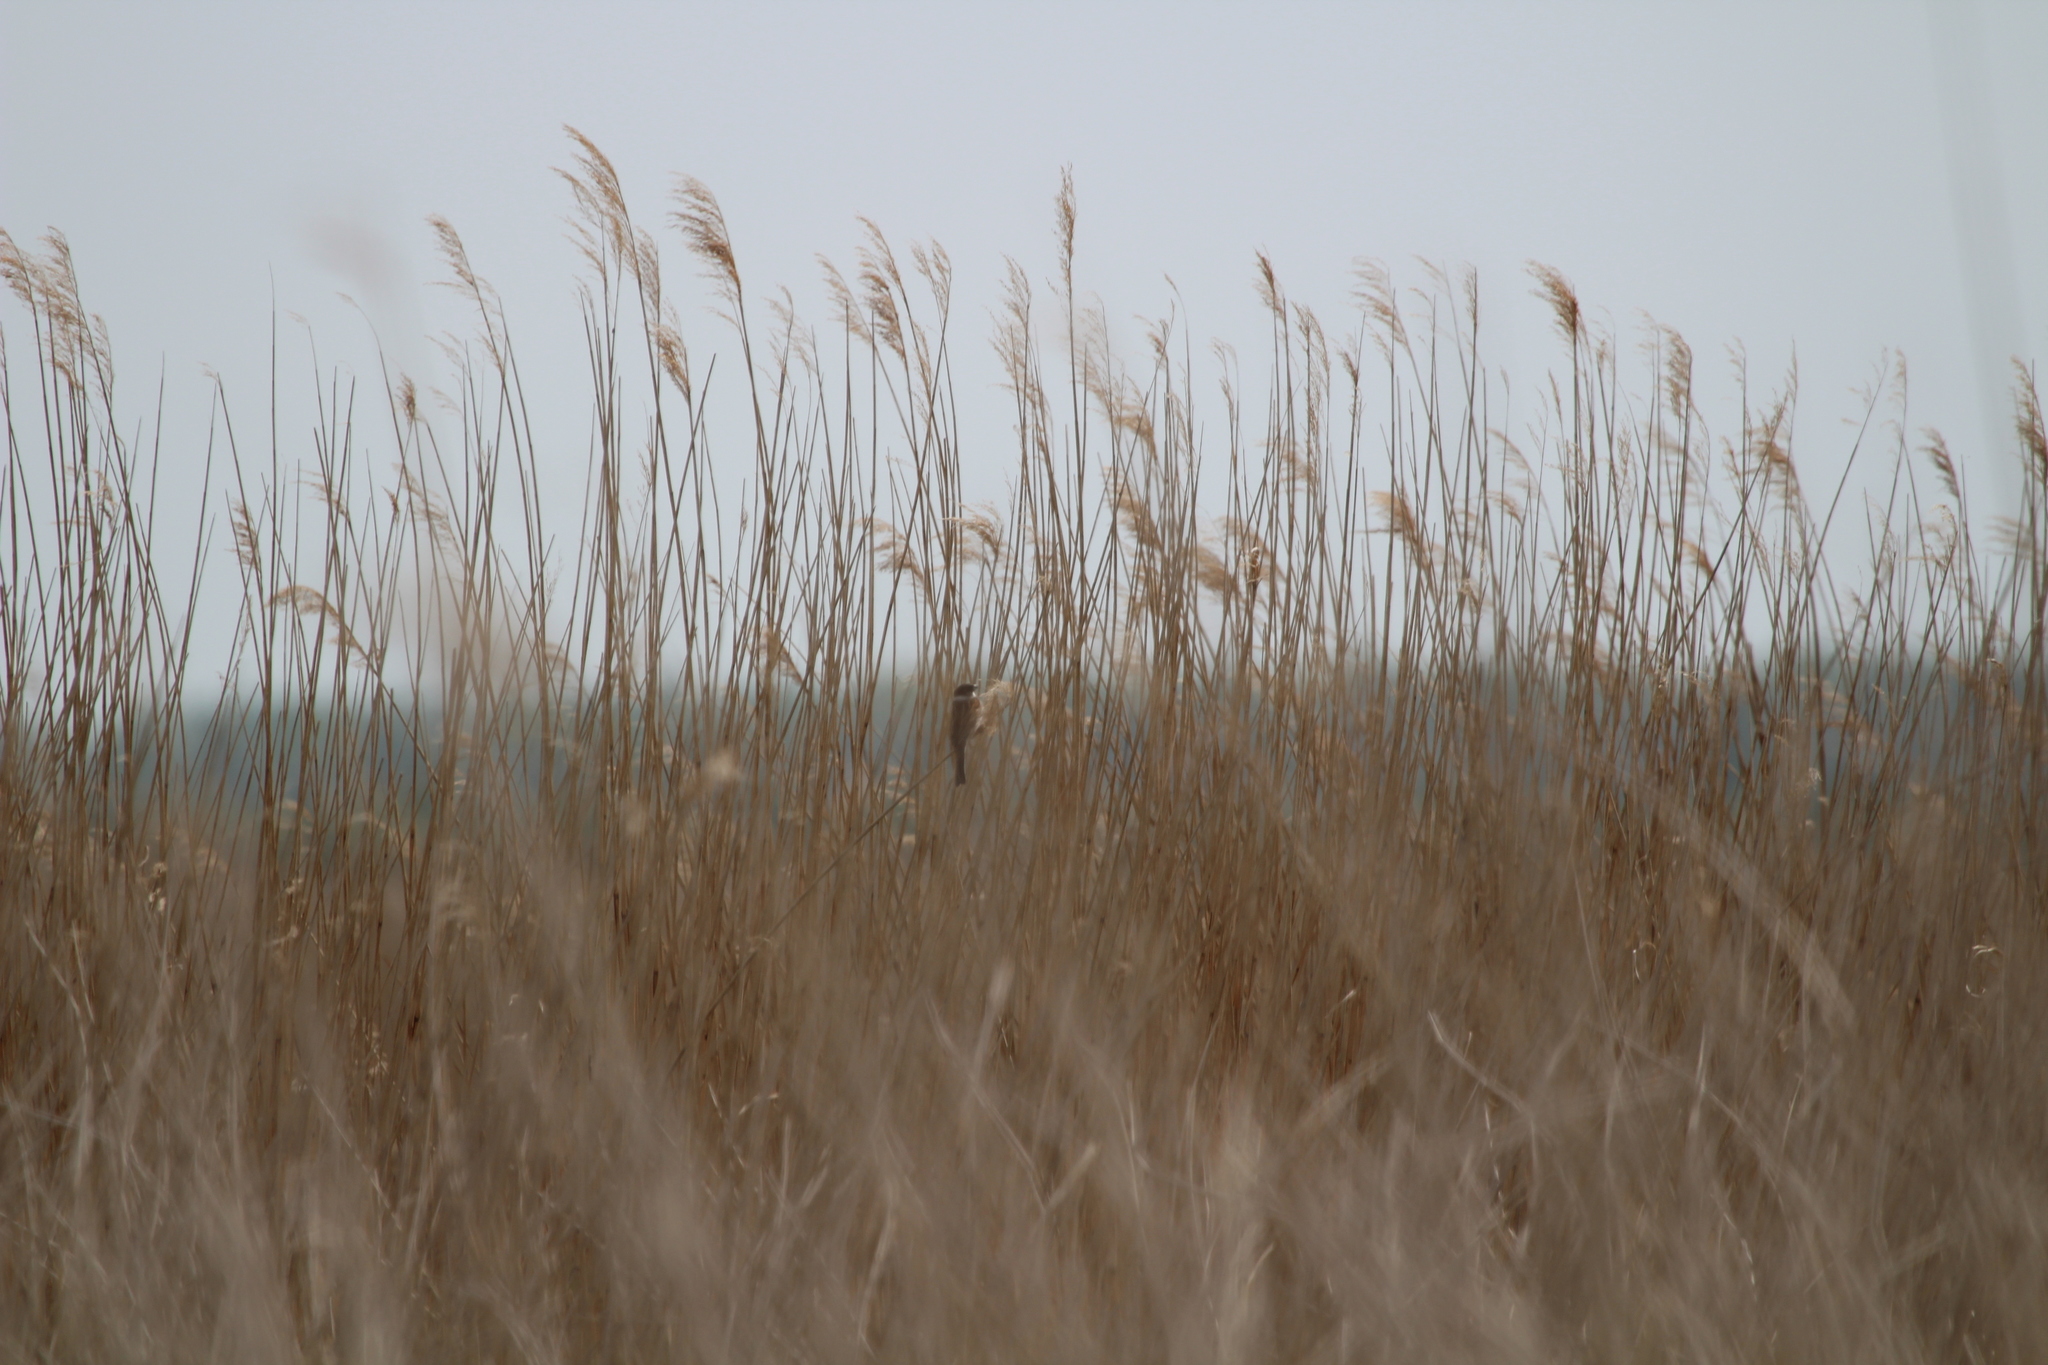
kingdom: Animalia
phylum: Chordata
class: Aves
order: Passeriformes
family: Emberizidae
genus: Emberiza
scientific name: Emberiza schoeniclus
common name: Reed bunting
